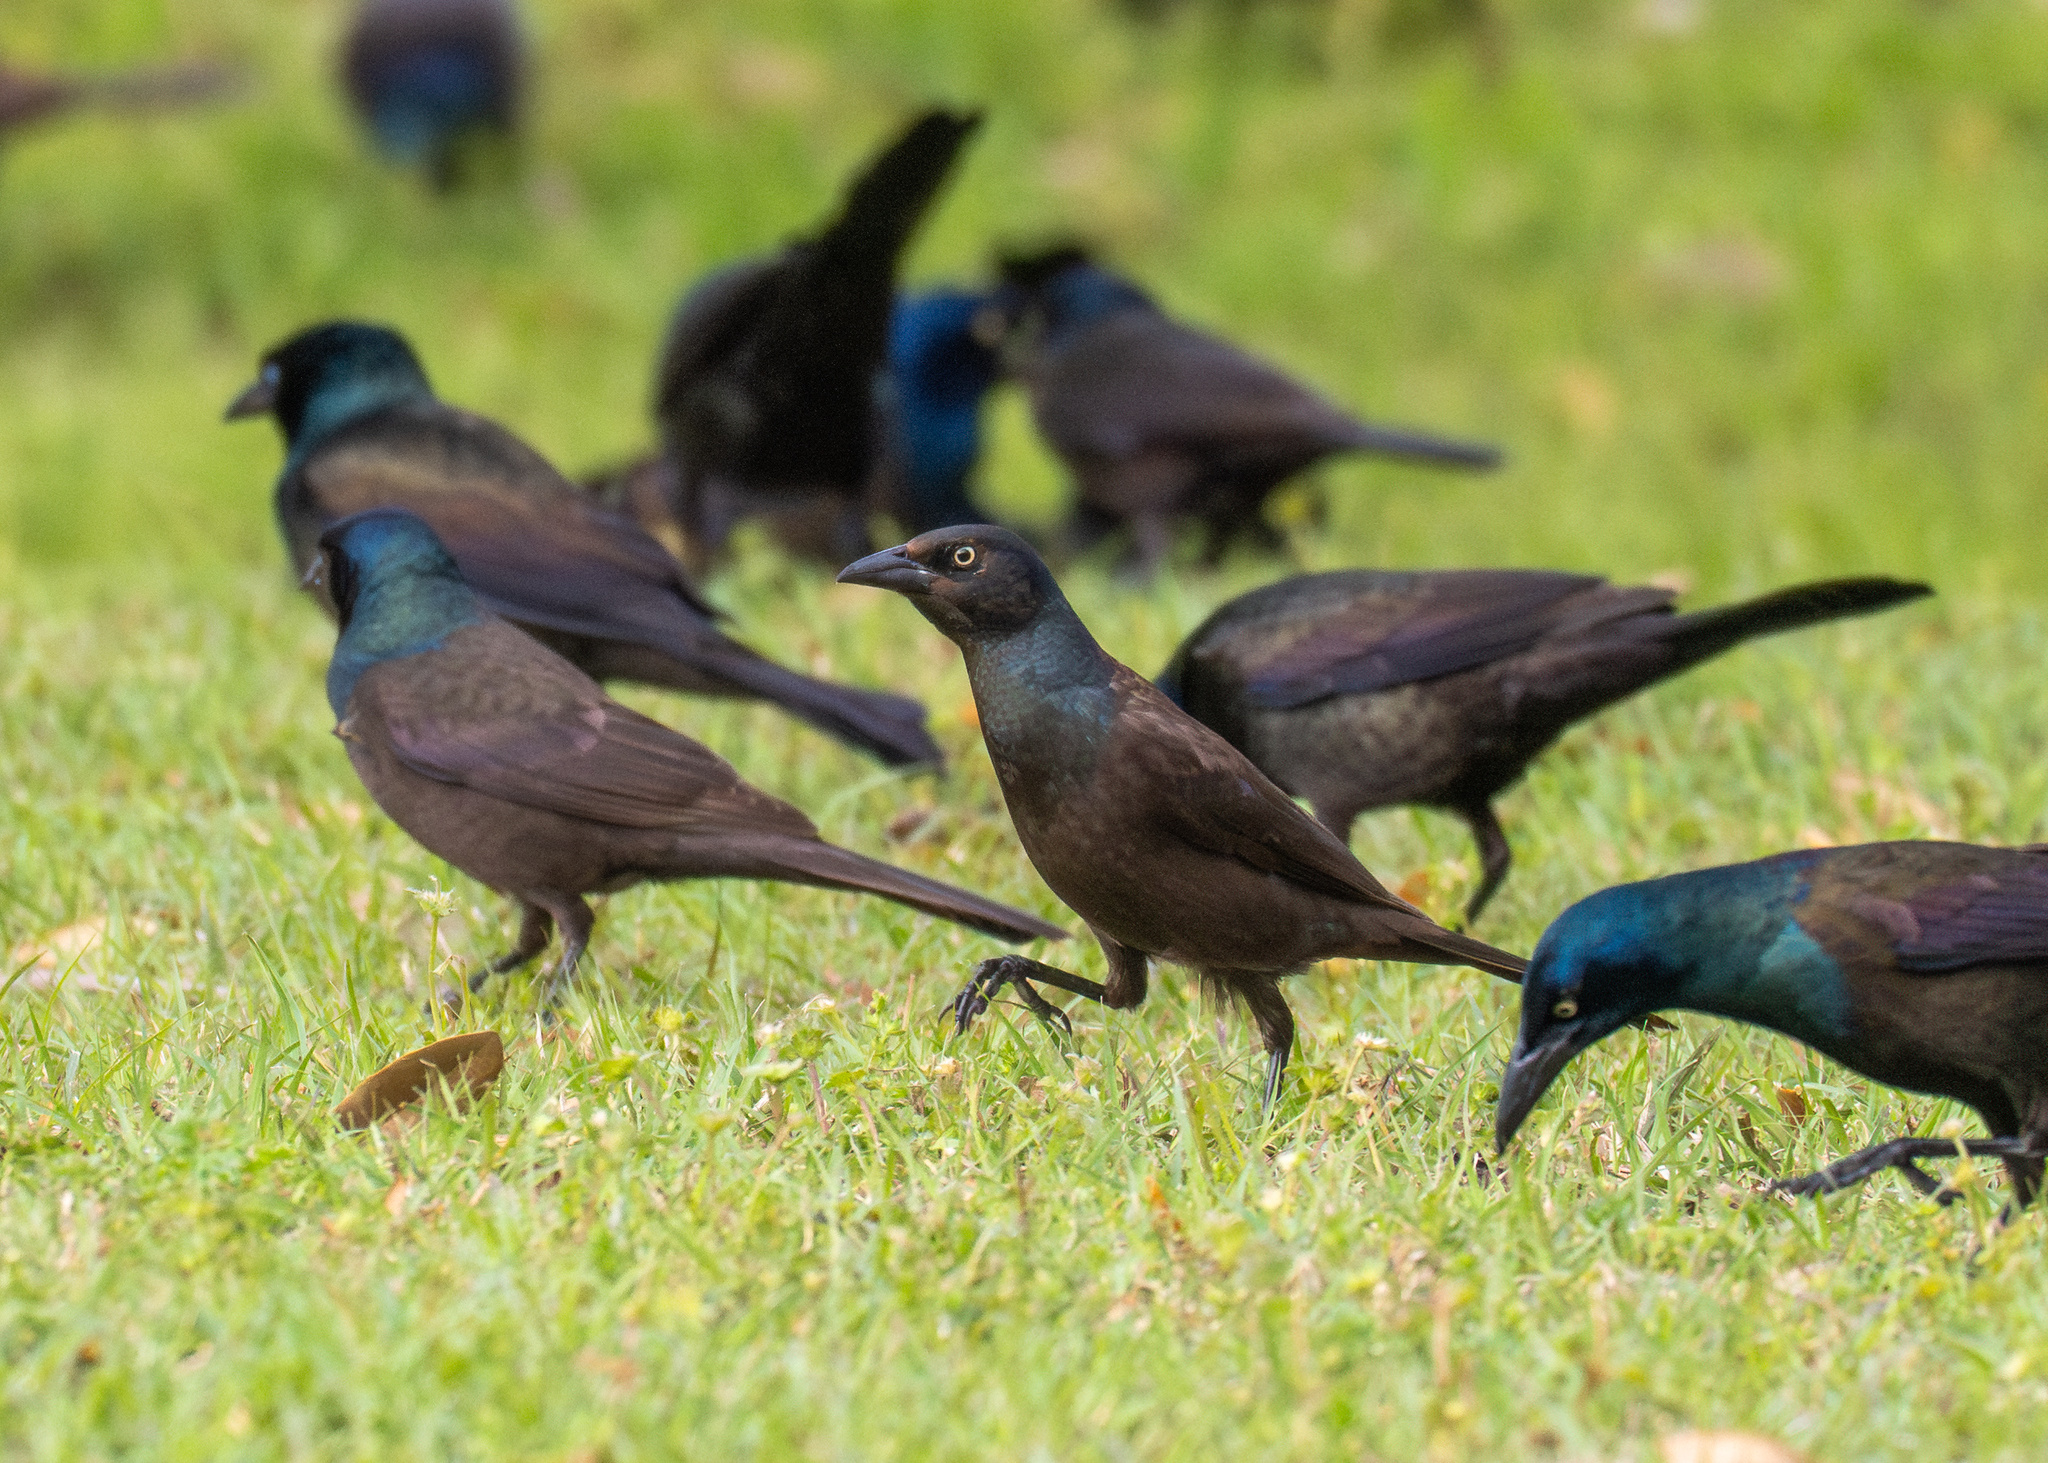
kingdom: Animalia
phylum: Chordata
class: Aves
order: Passeriformes
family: Icteridae
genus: Quiscalus
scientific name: Quiscalus quiscula
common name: Common grackle
